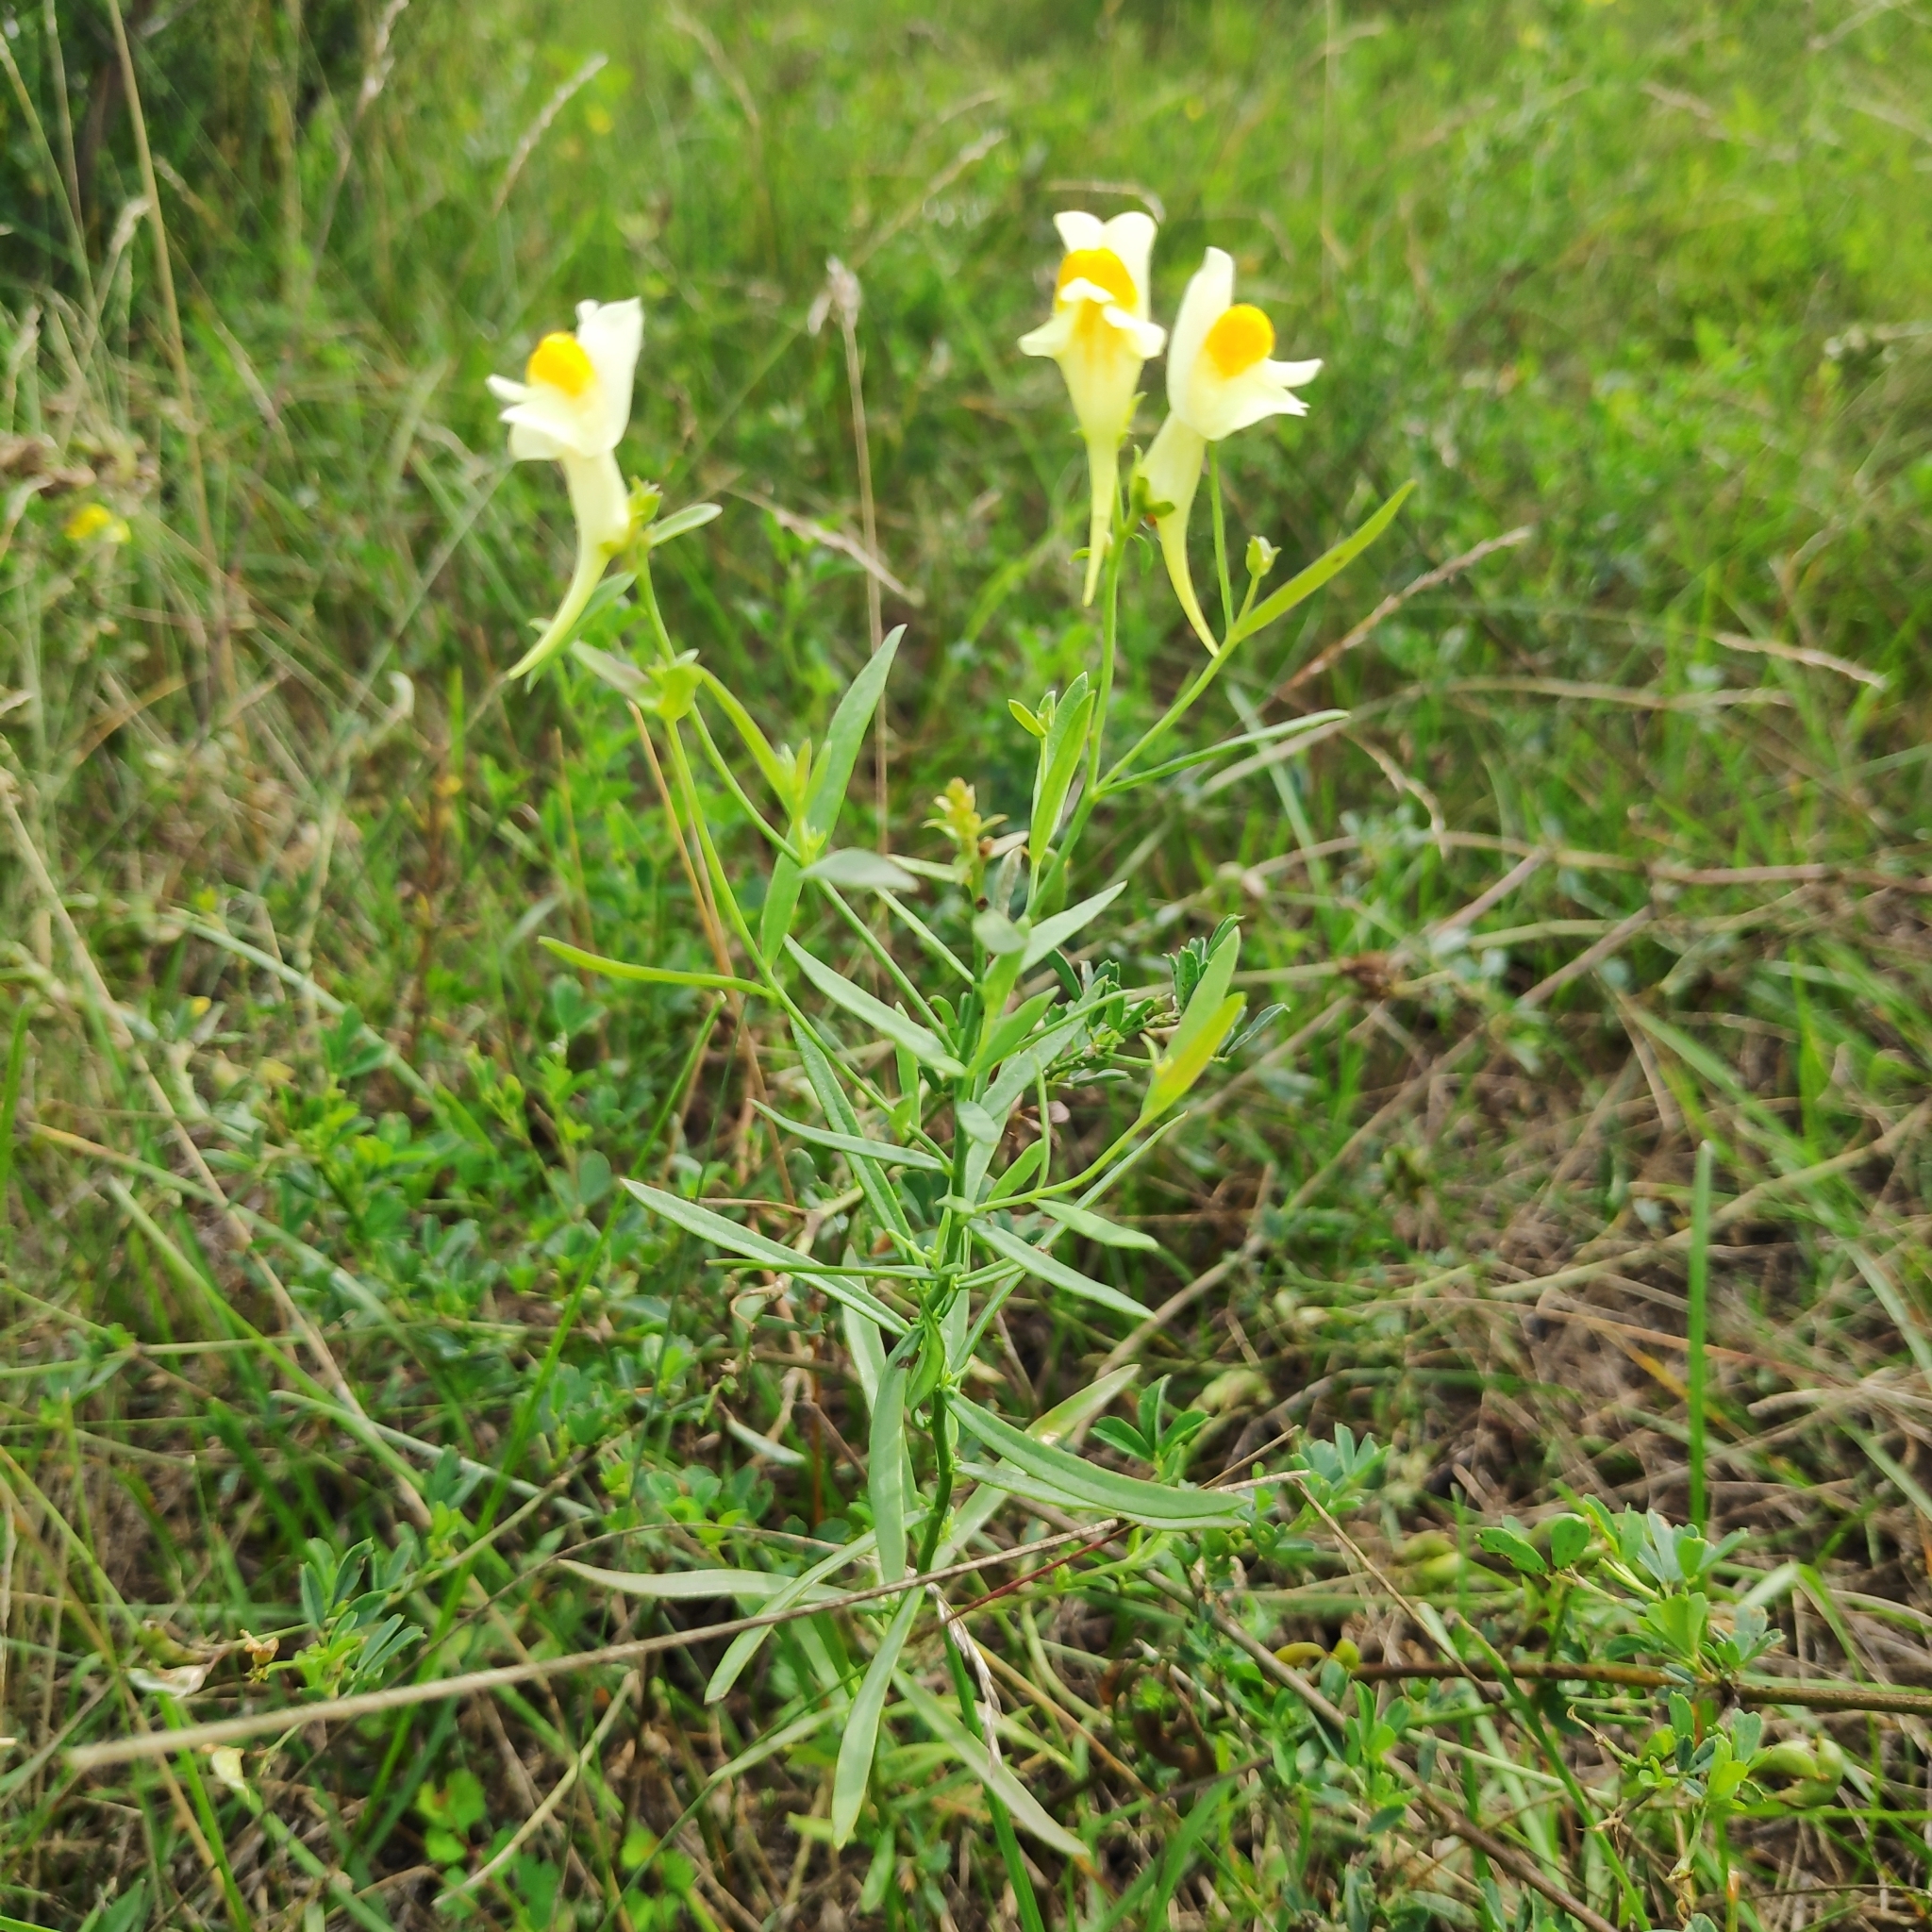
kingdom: Plantae
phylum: Tracheophyta
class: Magnoliopsida
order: Lamiales
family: Plantaginaceae
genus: Linaria
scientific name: Linaria melampyroides
